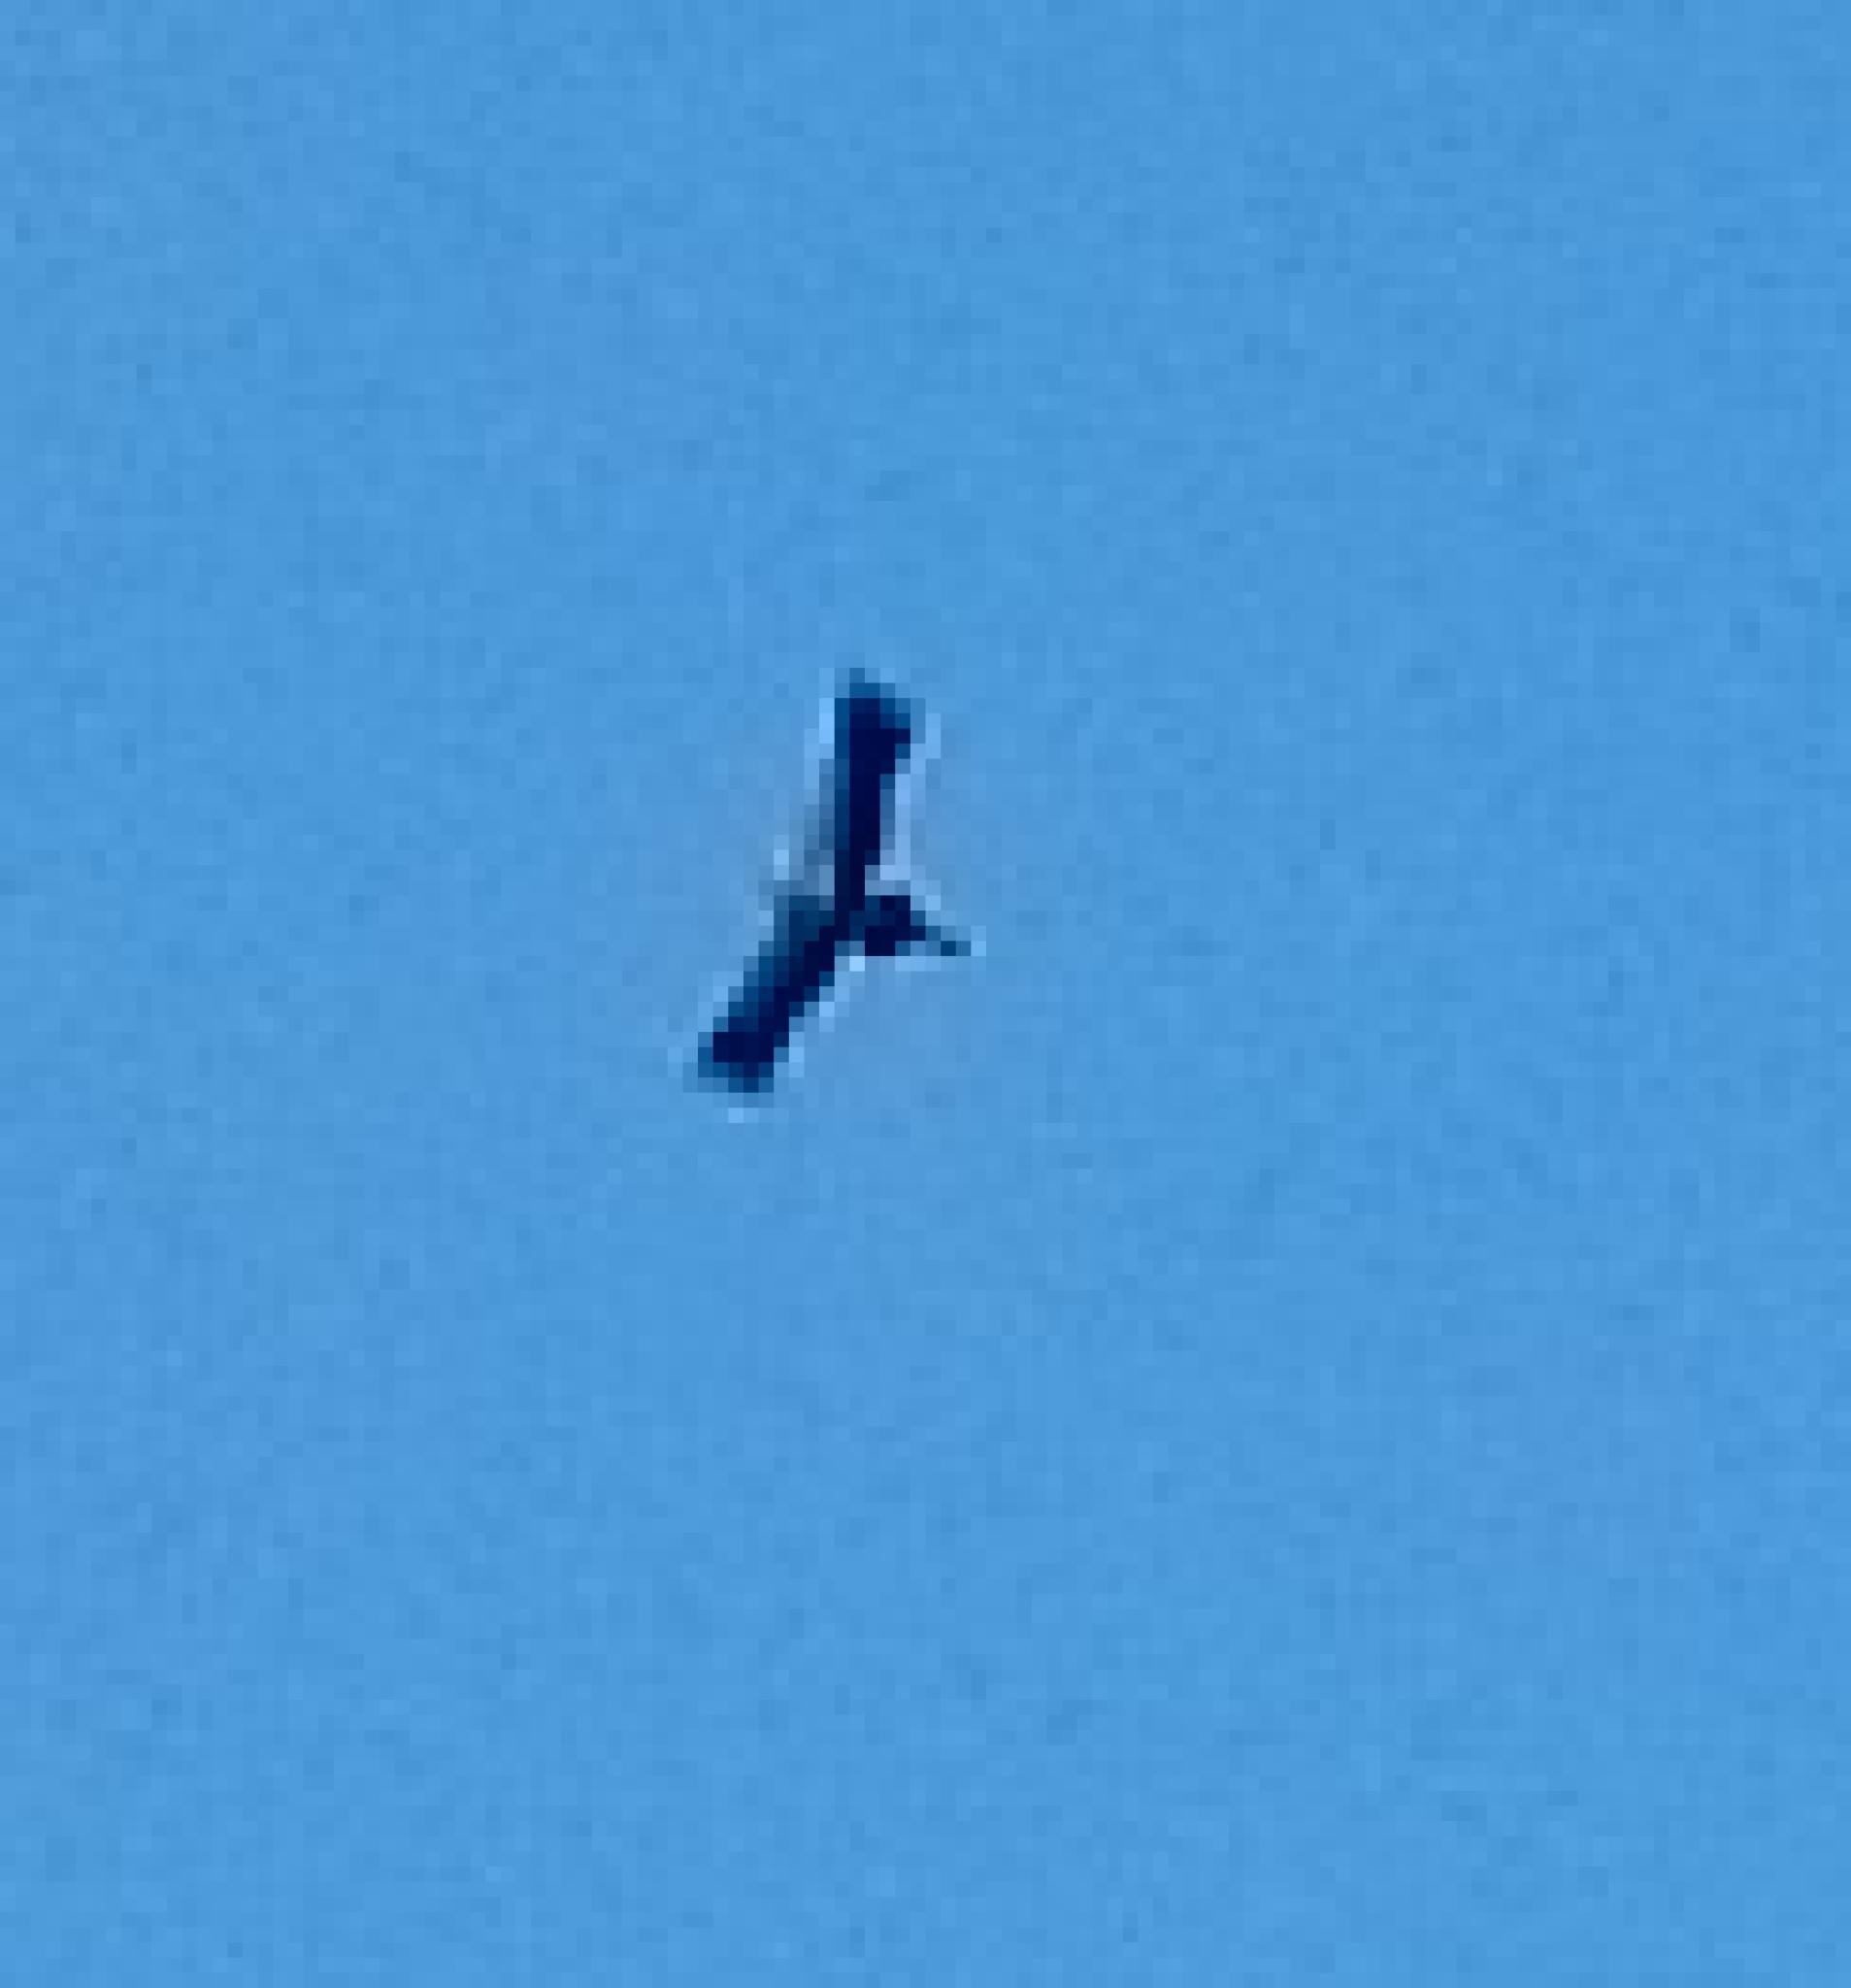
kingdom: Animalia
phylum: Chordata
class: Aves
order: Accipitriformes
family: Sagittariidae
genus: Sagittarius
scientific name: Sagittarius serpentarius
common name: Secretarybird
